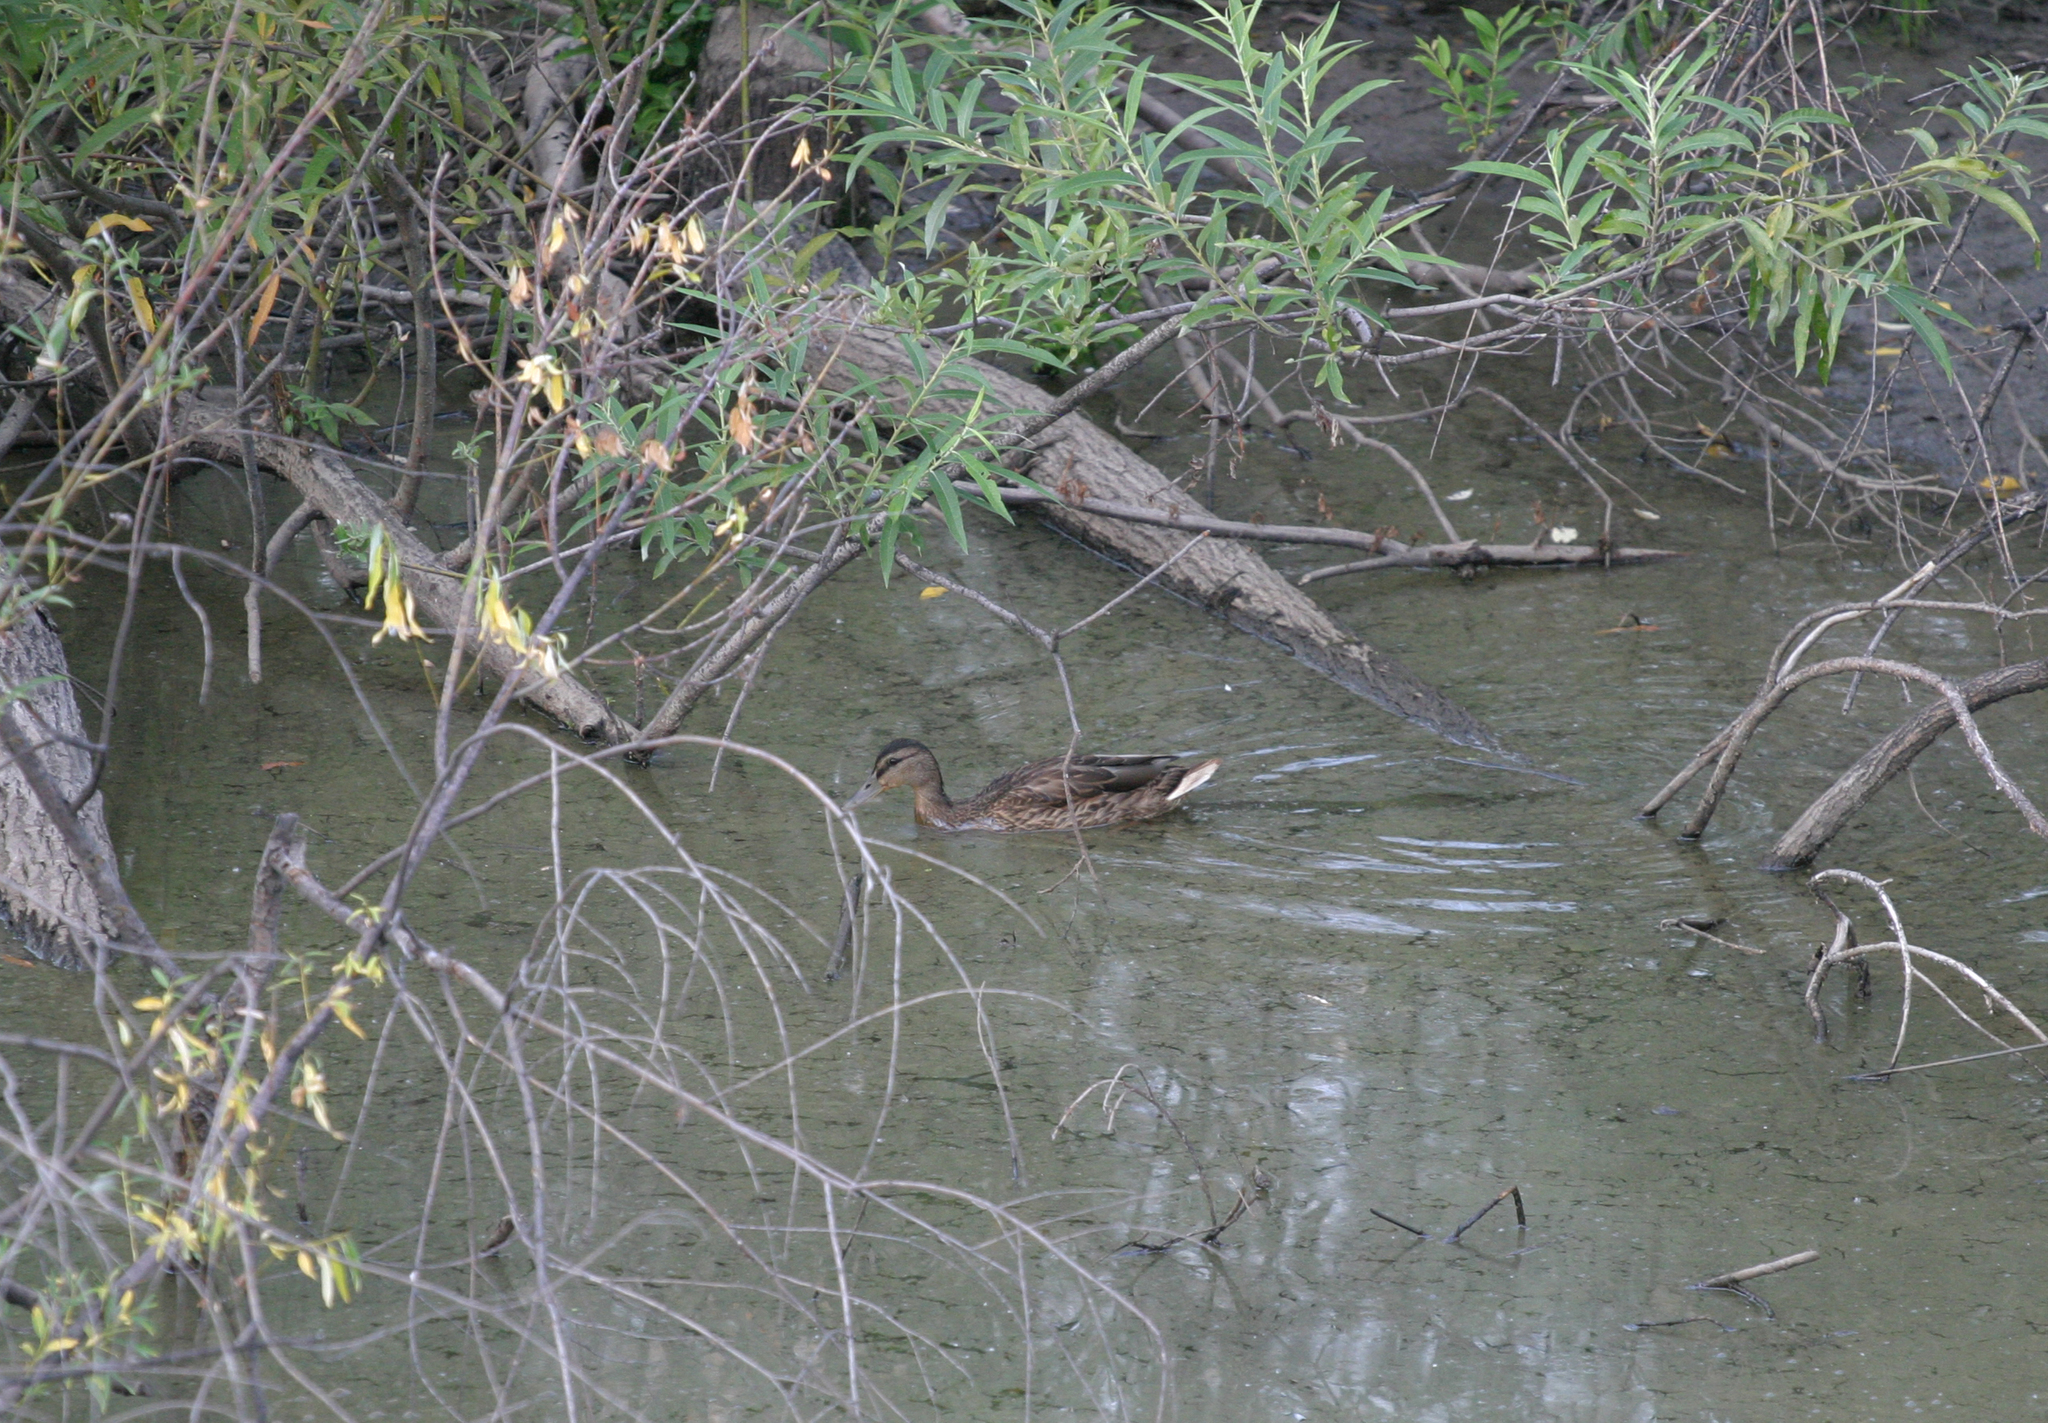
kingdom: Animalia
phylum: Chordata
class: Aves
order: Anseriformes
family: Anatidae
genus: Anas
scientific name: Anas platyrhynchos
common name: Mallard
